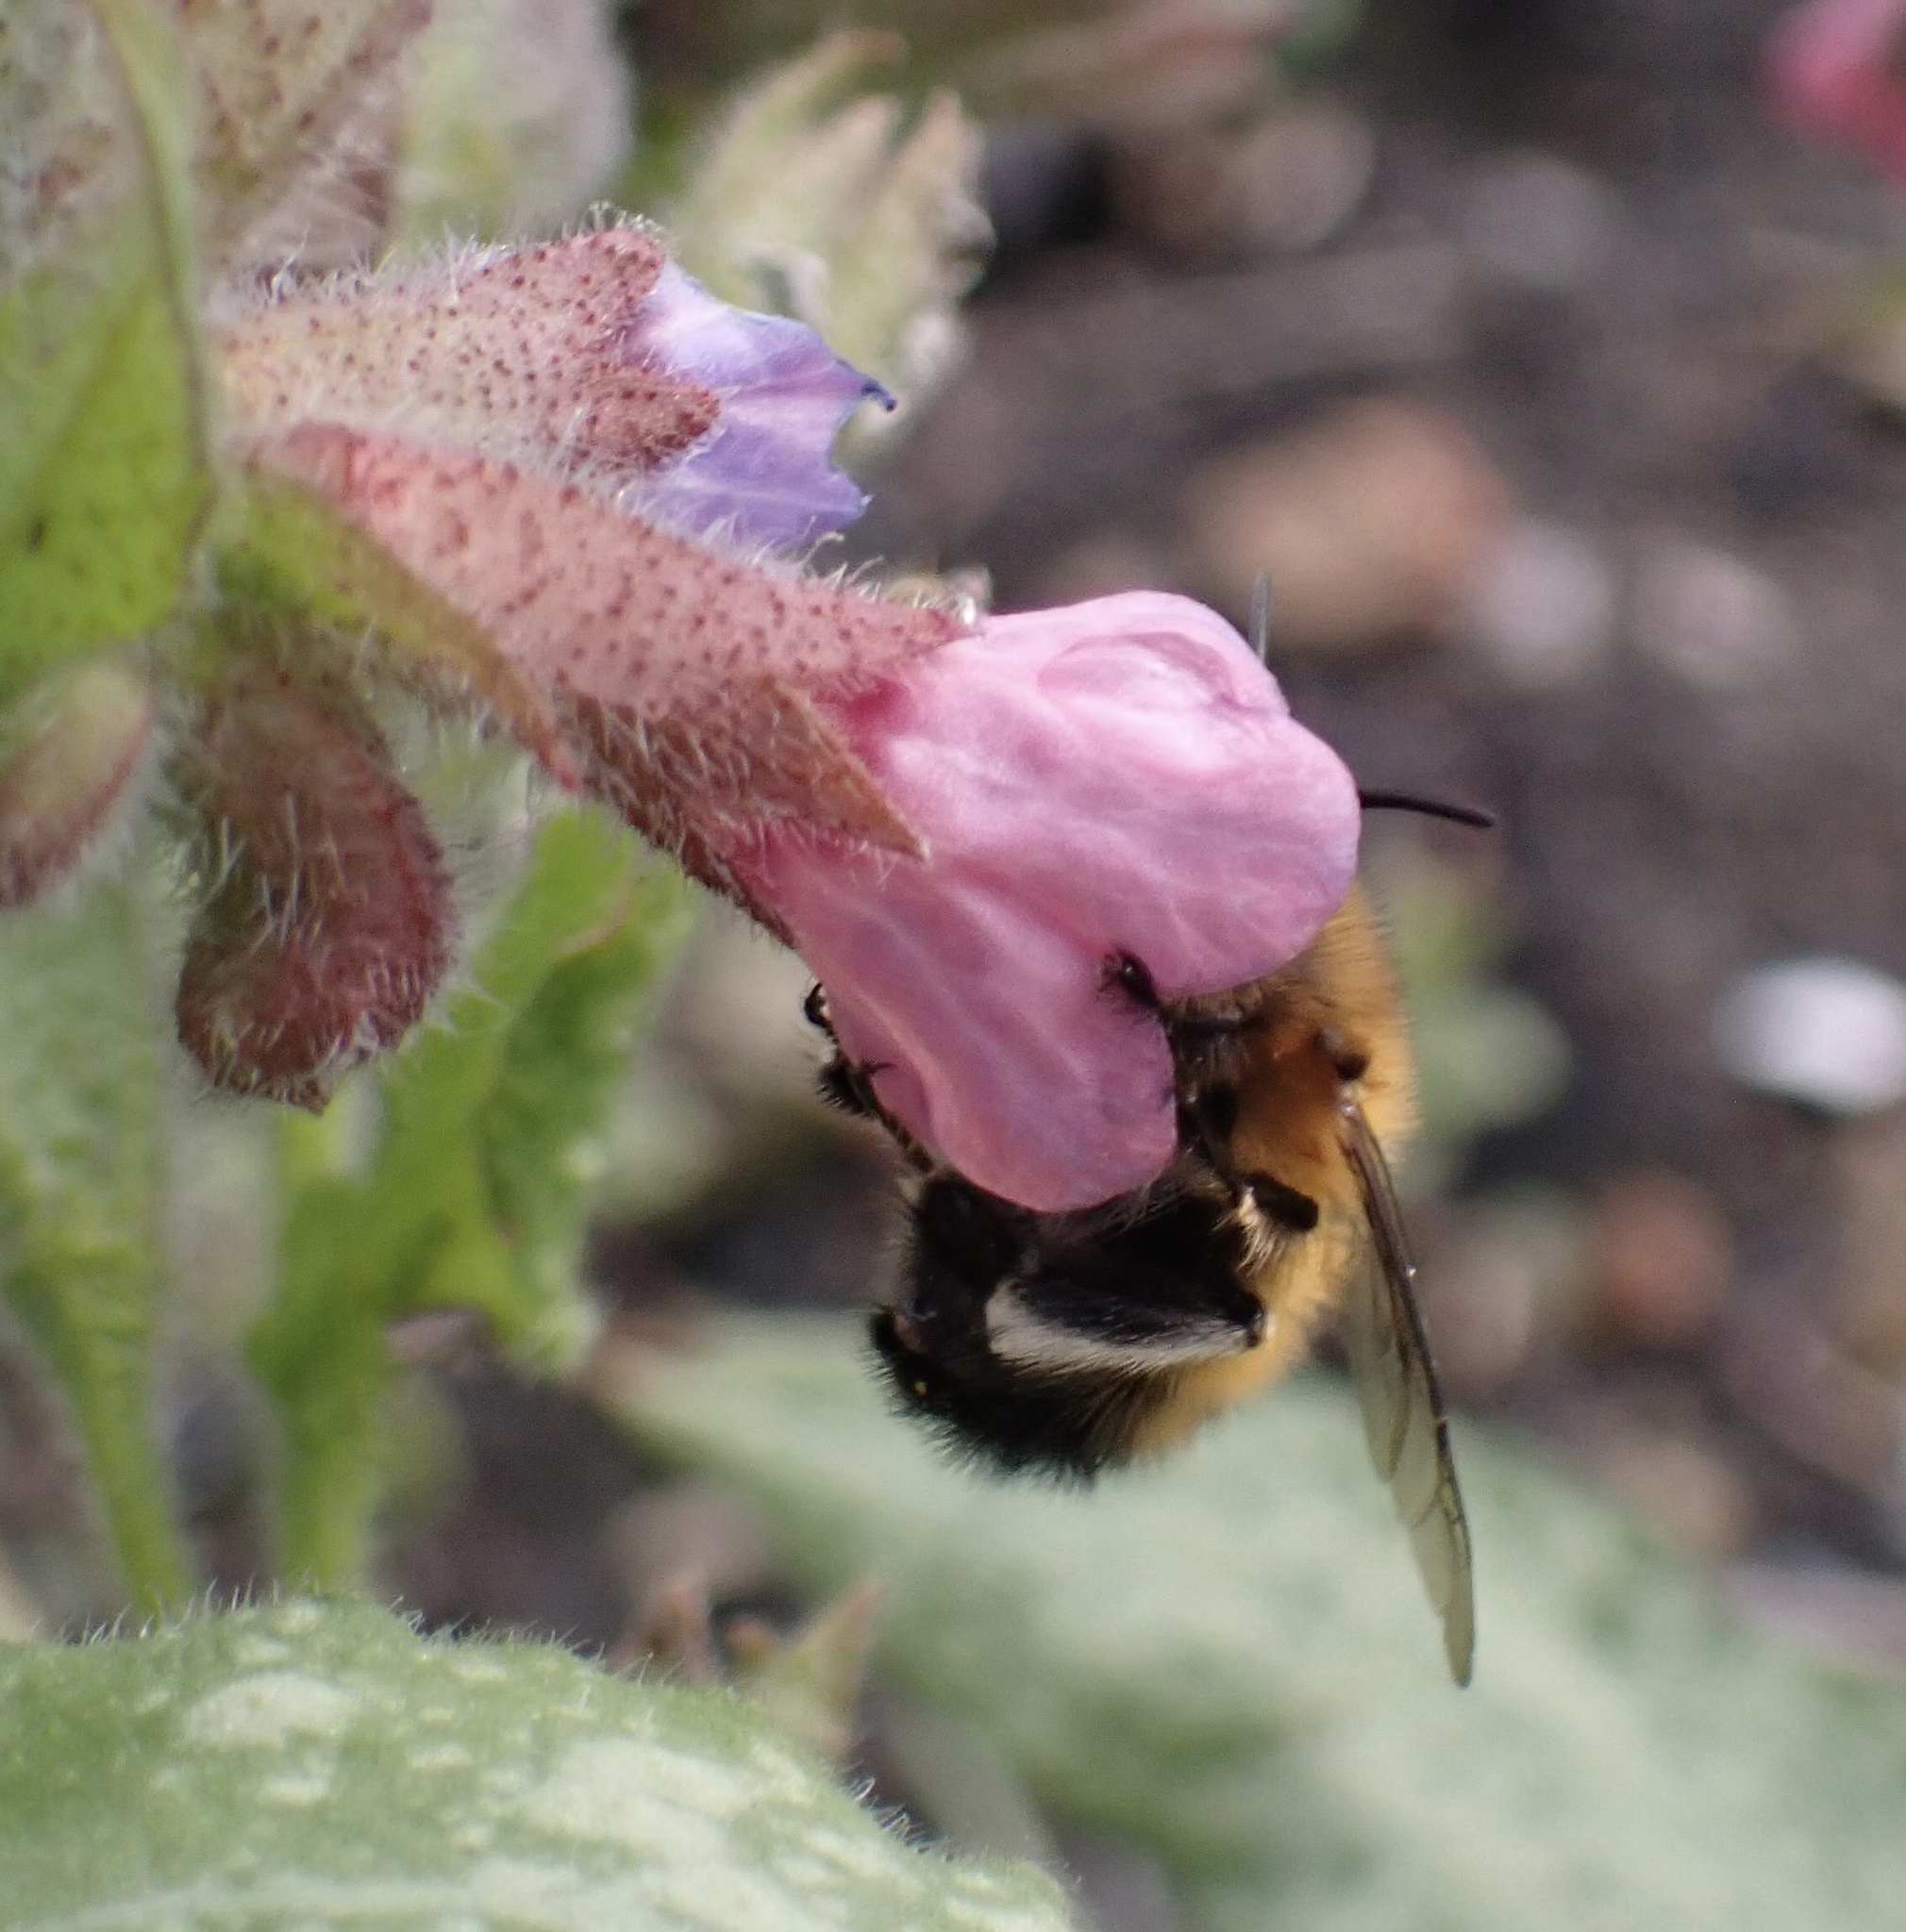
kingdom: Animalia
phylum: Arthropoda
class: Insecta
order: Hymenoptera
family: Apidae
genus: Anthophora
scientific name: Anthophora plumipes
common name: Hairy-footed flower bee
